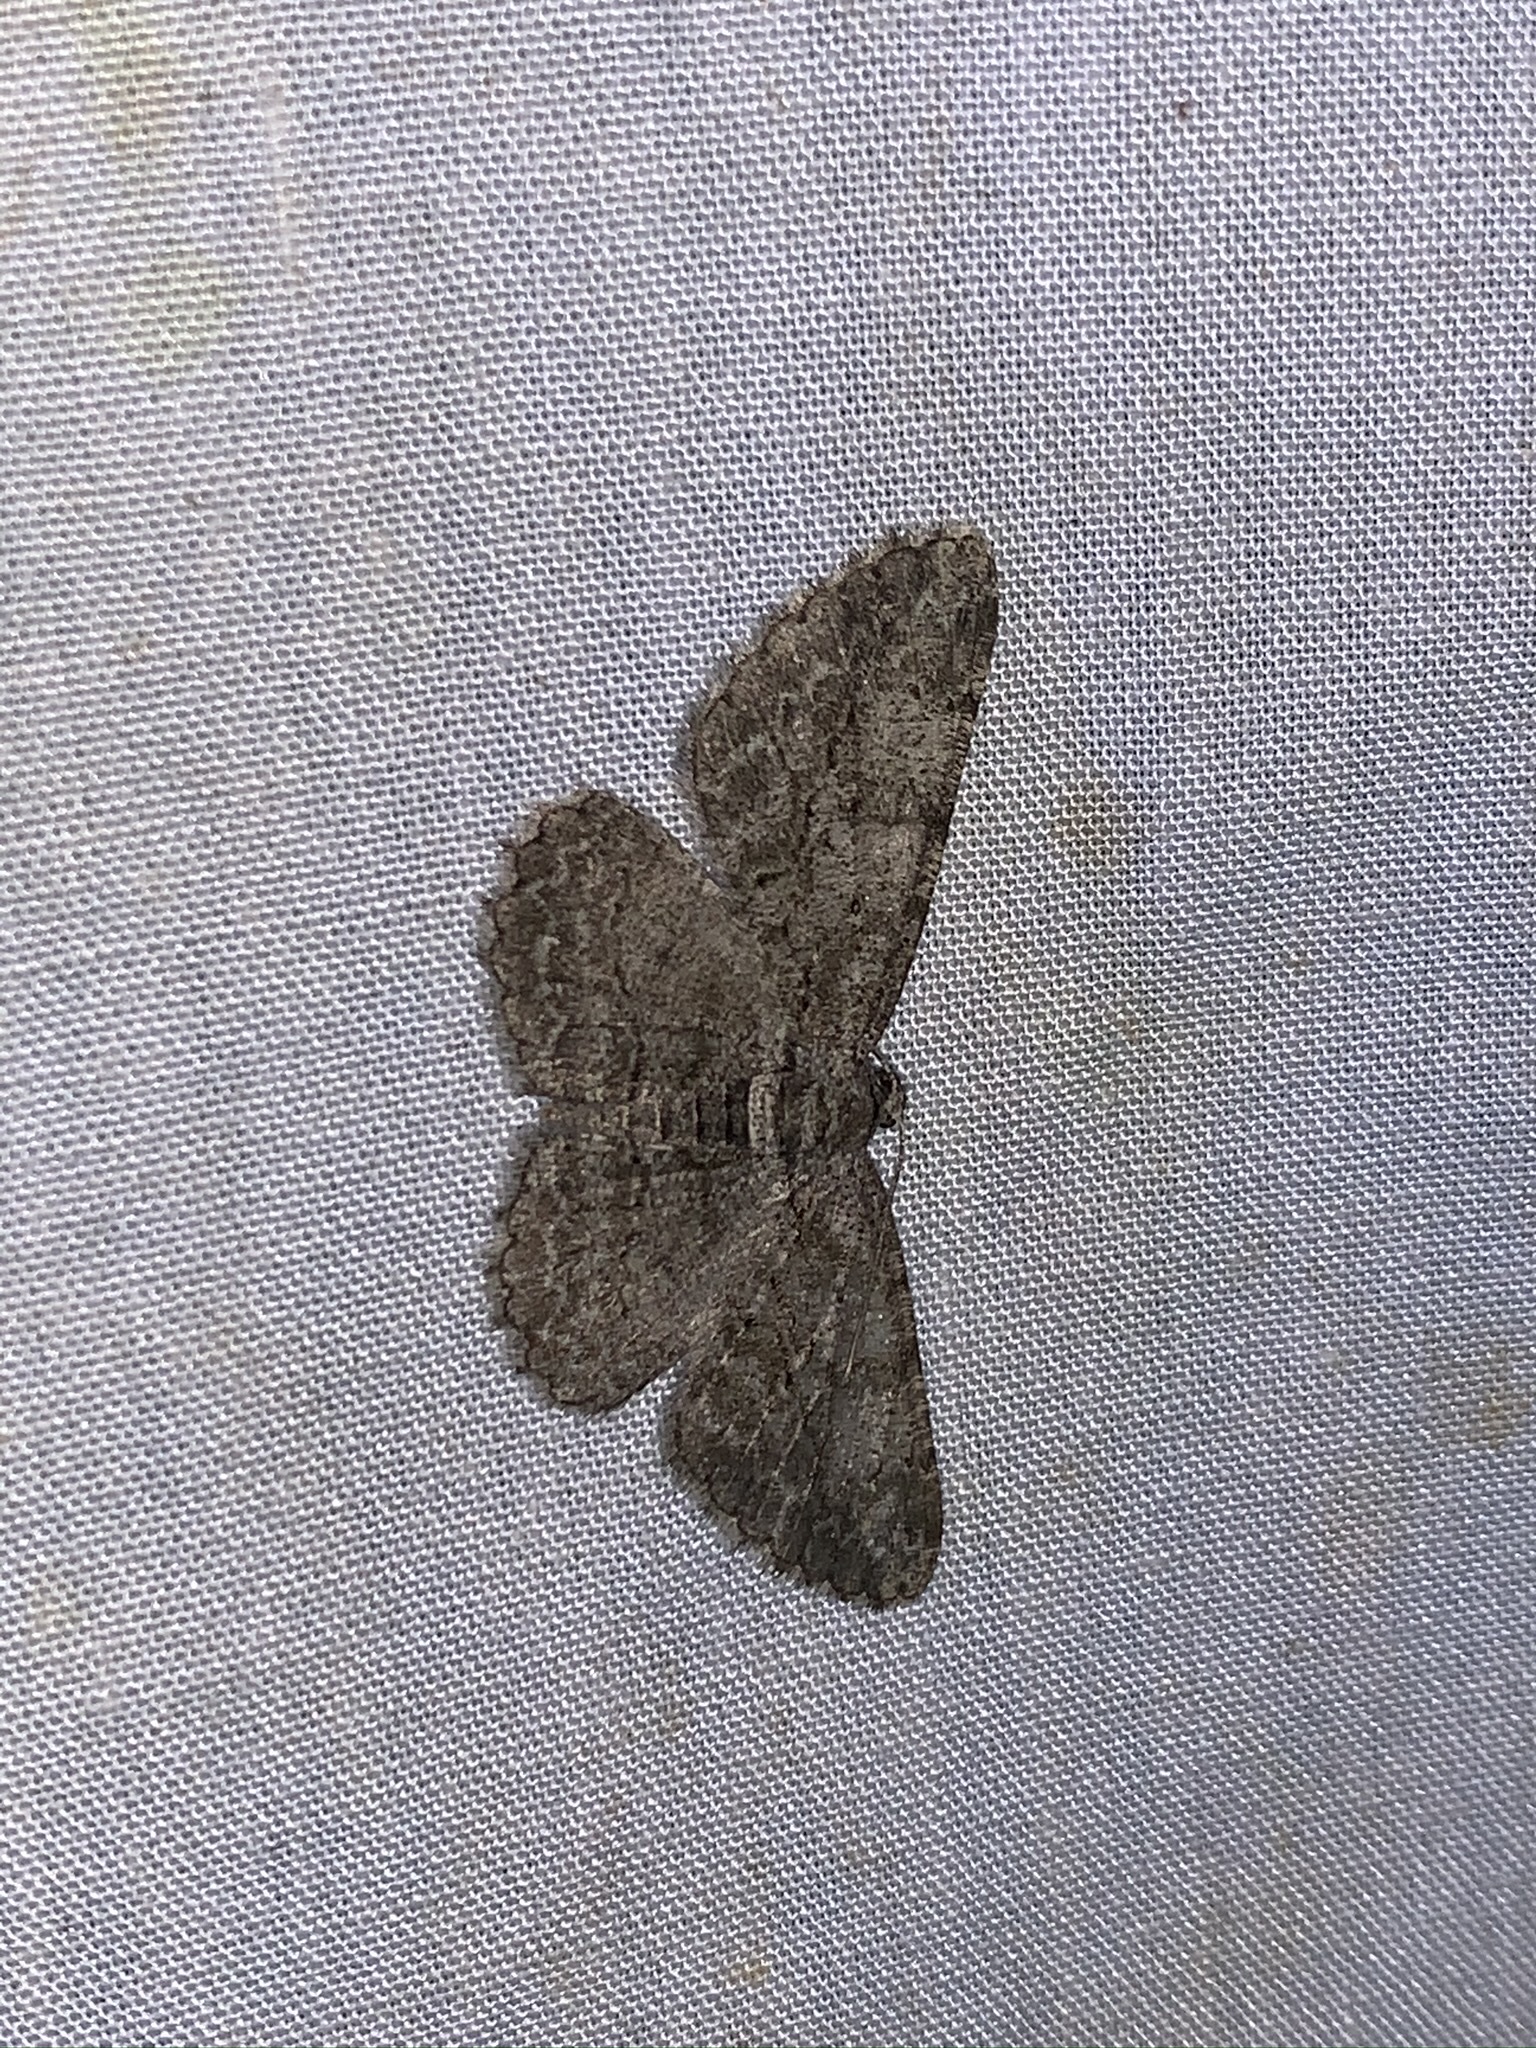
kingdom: Animalia
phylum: Arthropoda
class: Insecta
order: Lepidoptera
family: Geometridae
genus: Anavitrinella
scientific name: Anavitrinella pampinaria
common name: Common gray
